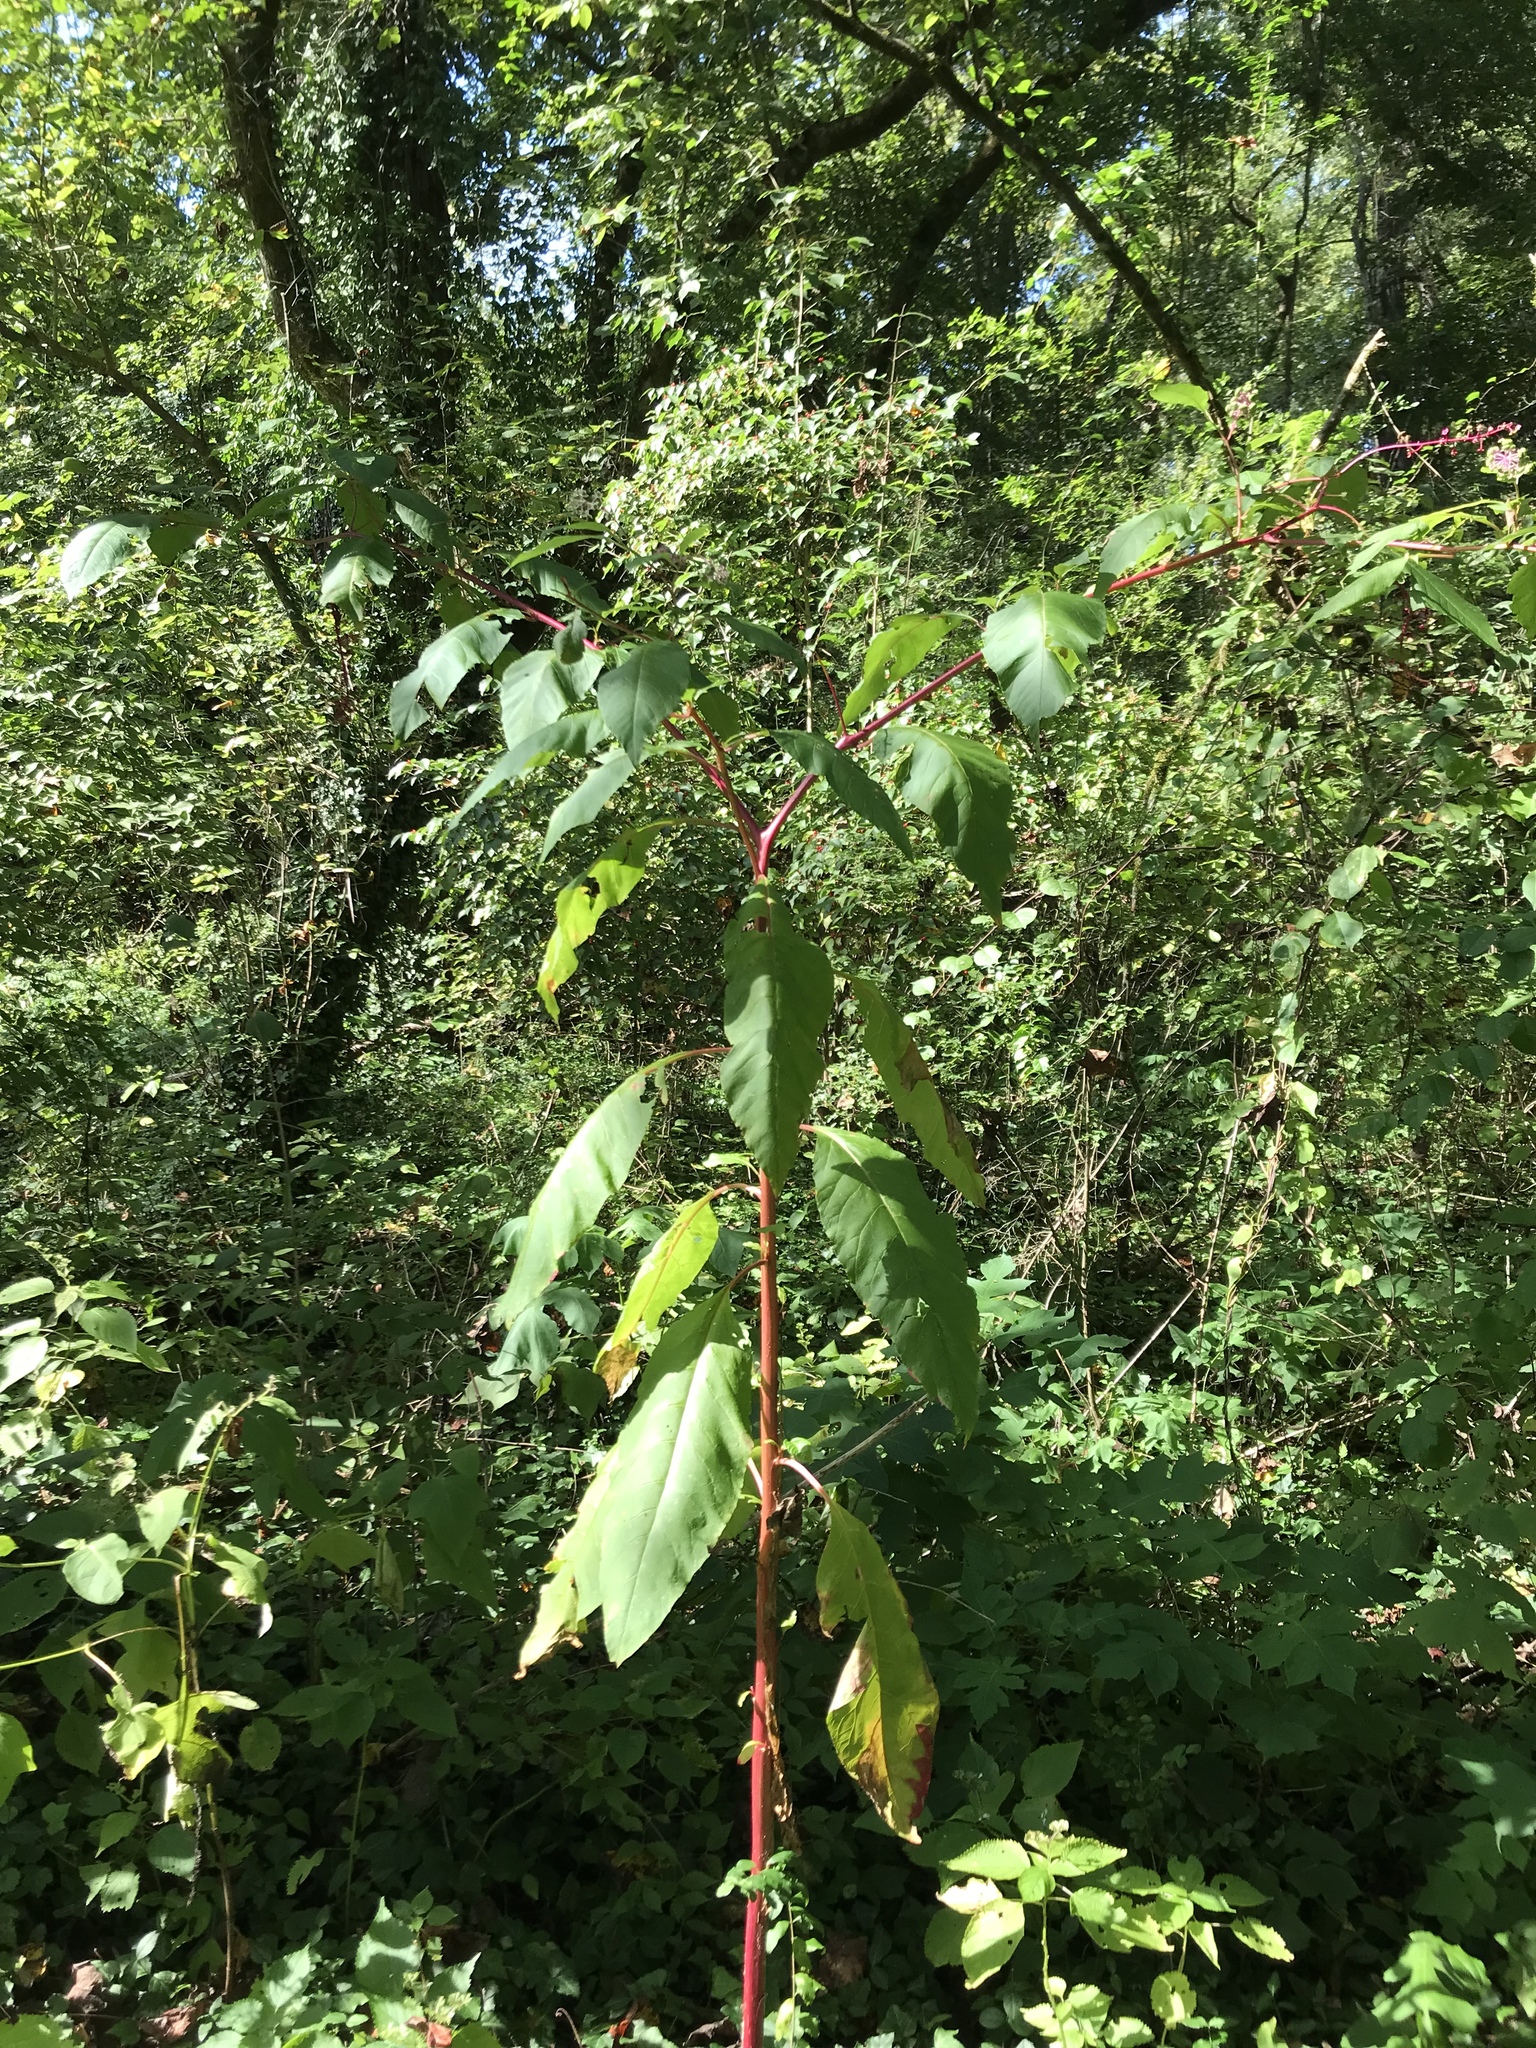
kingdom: Plantae
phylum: Tracheophyta
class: Magnoliopsida
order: Caryophyllales
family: Phytolaccaceae
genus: Phytolacca
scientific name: Phytolacca americana
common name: American pokeweed
